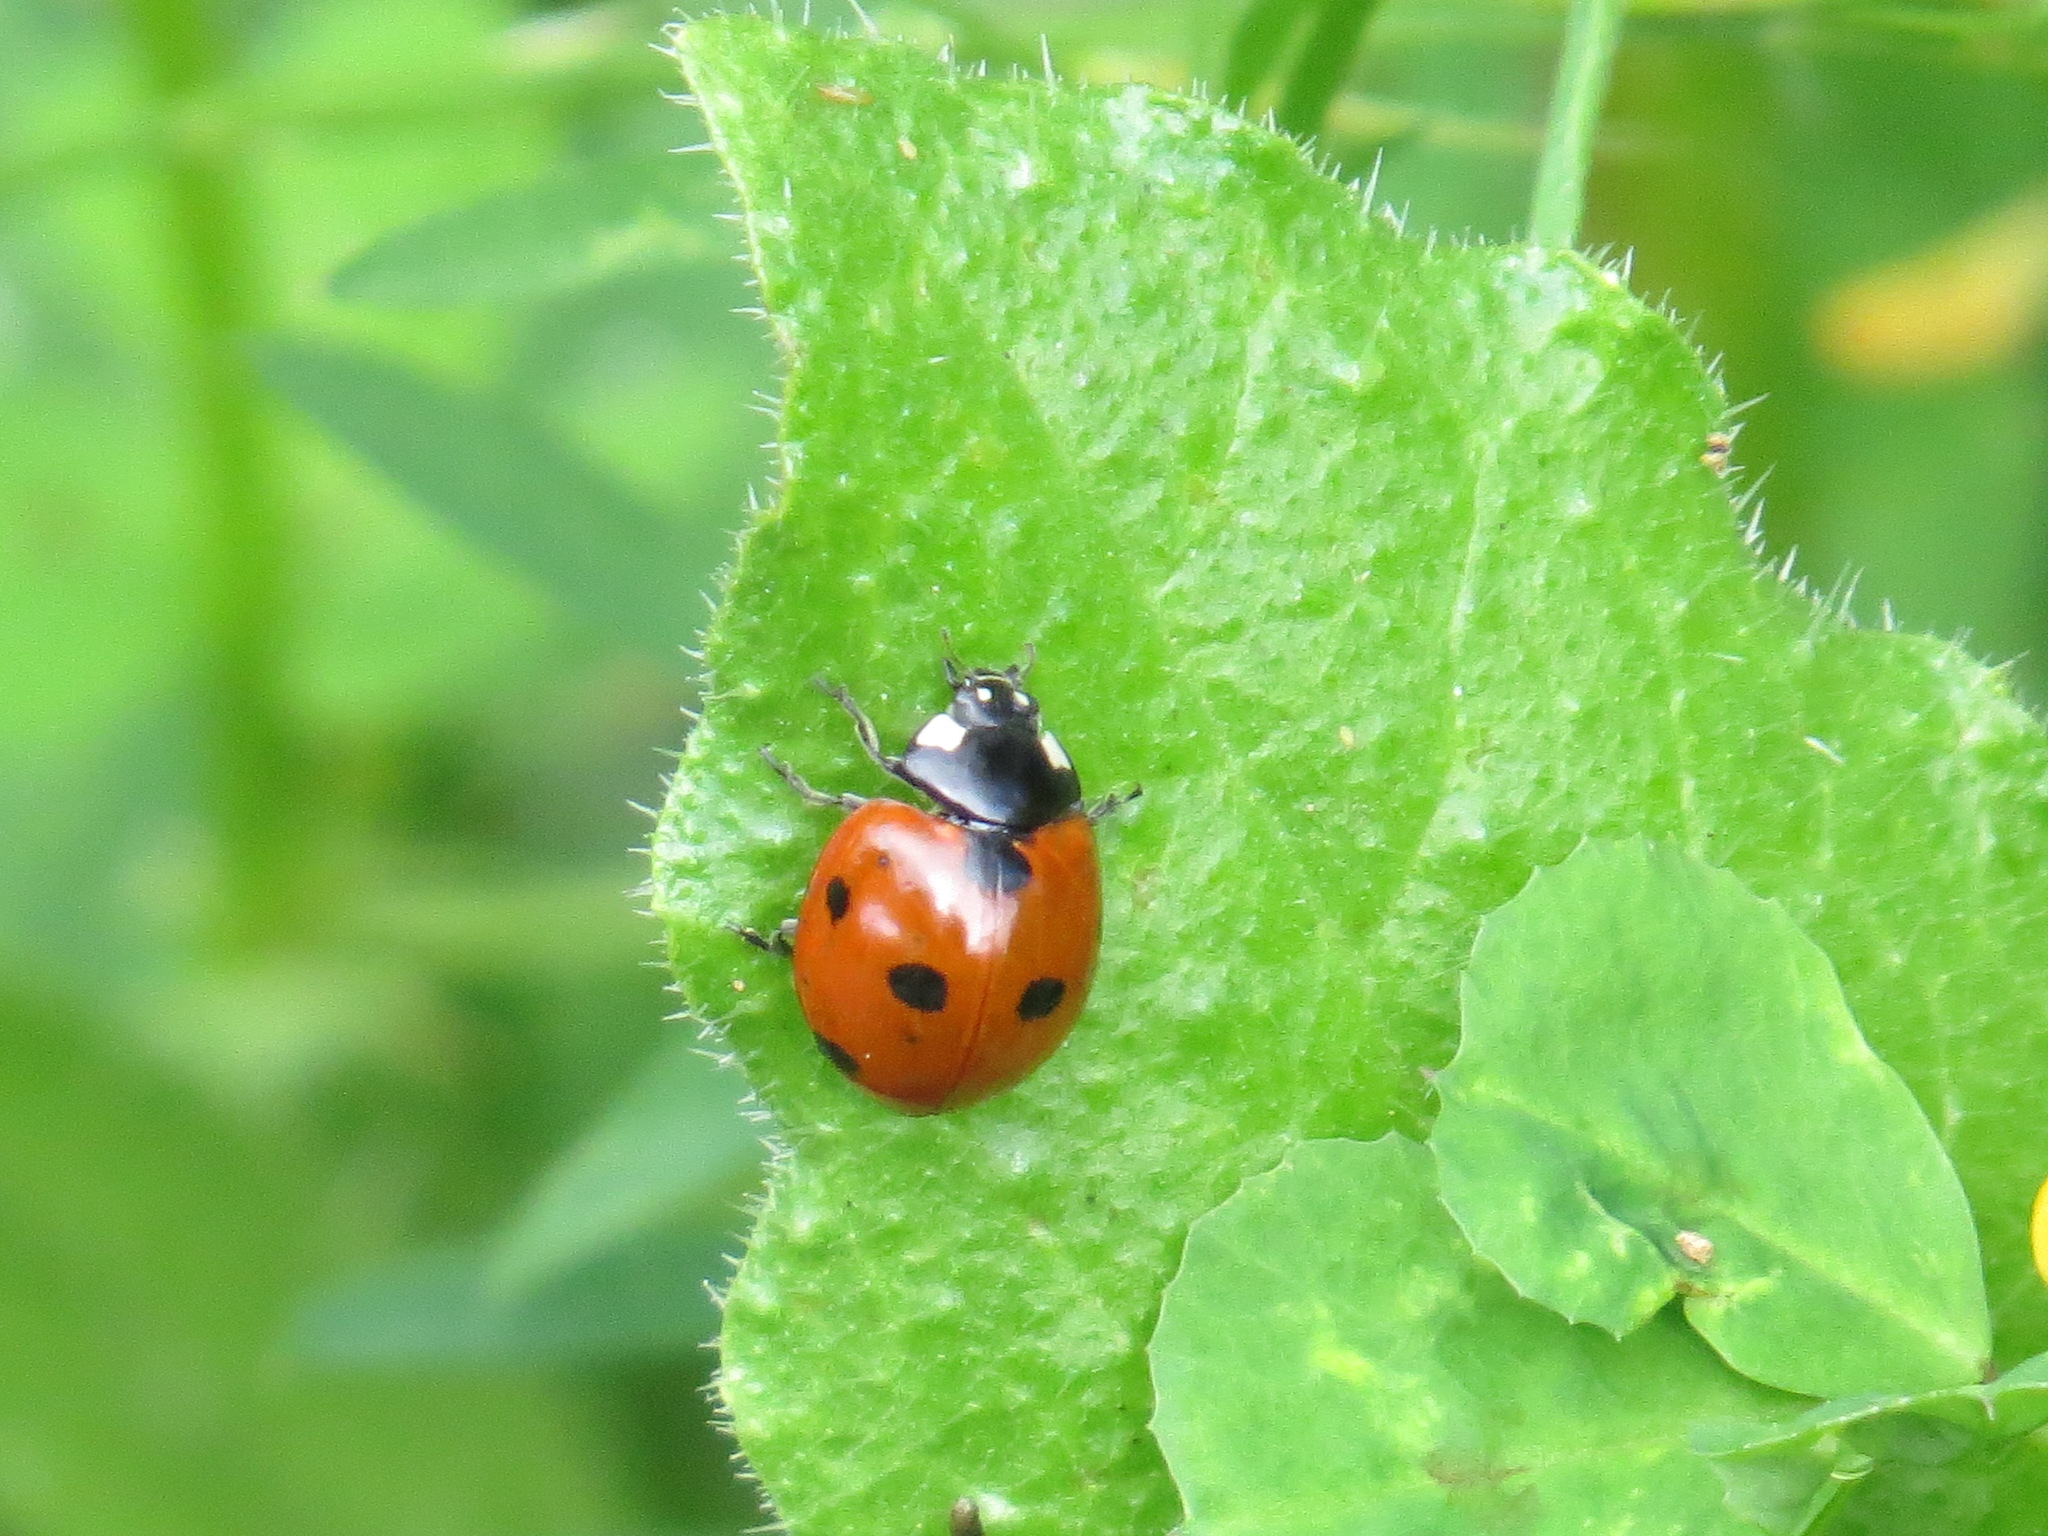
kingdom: Animalia
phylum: Arthropoda
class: Insecta
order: Coleoptera
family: Coccinellidae
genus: Coccinella
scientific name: Coccinella septempunctata
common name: Sevenspotted lady beetle
